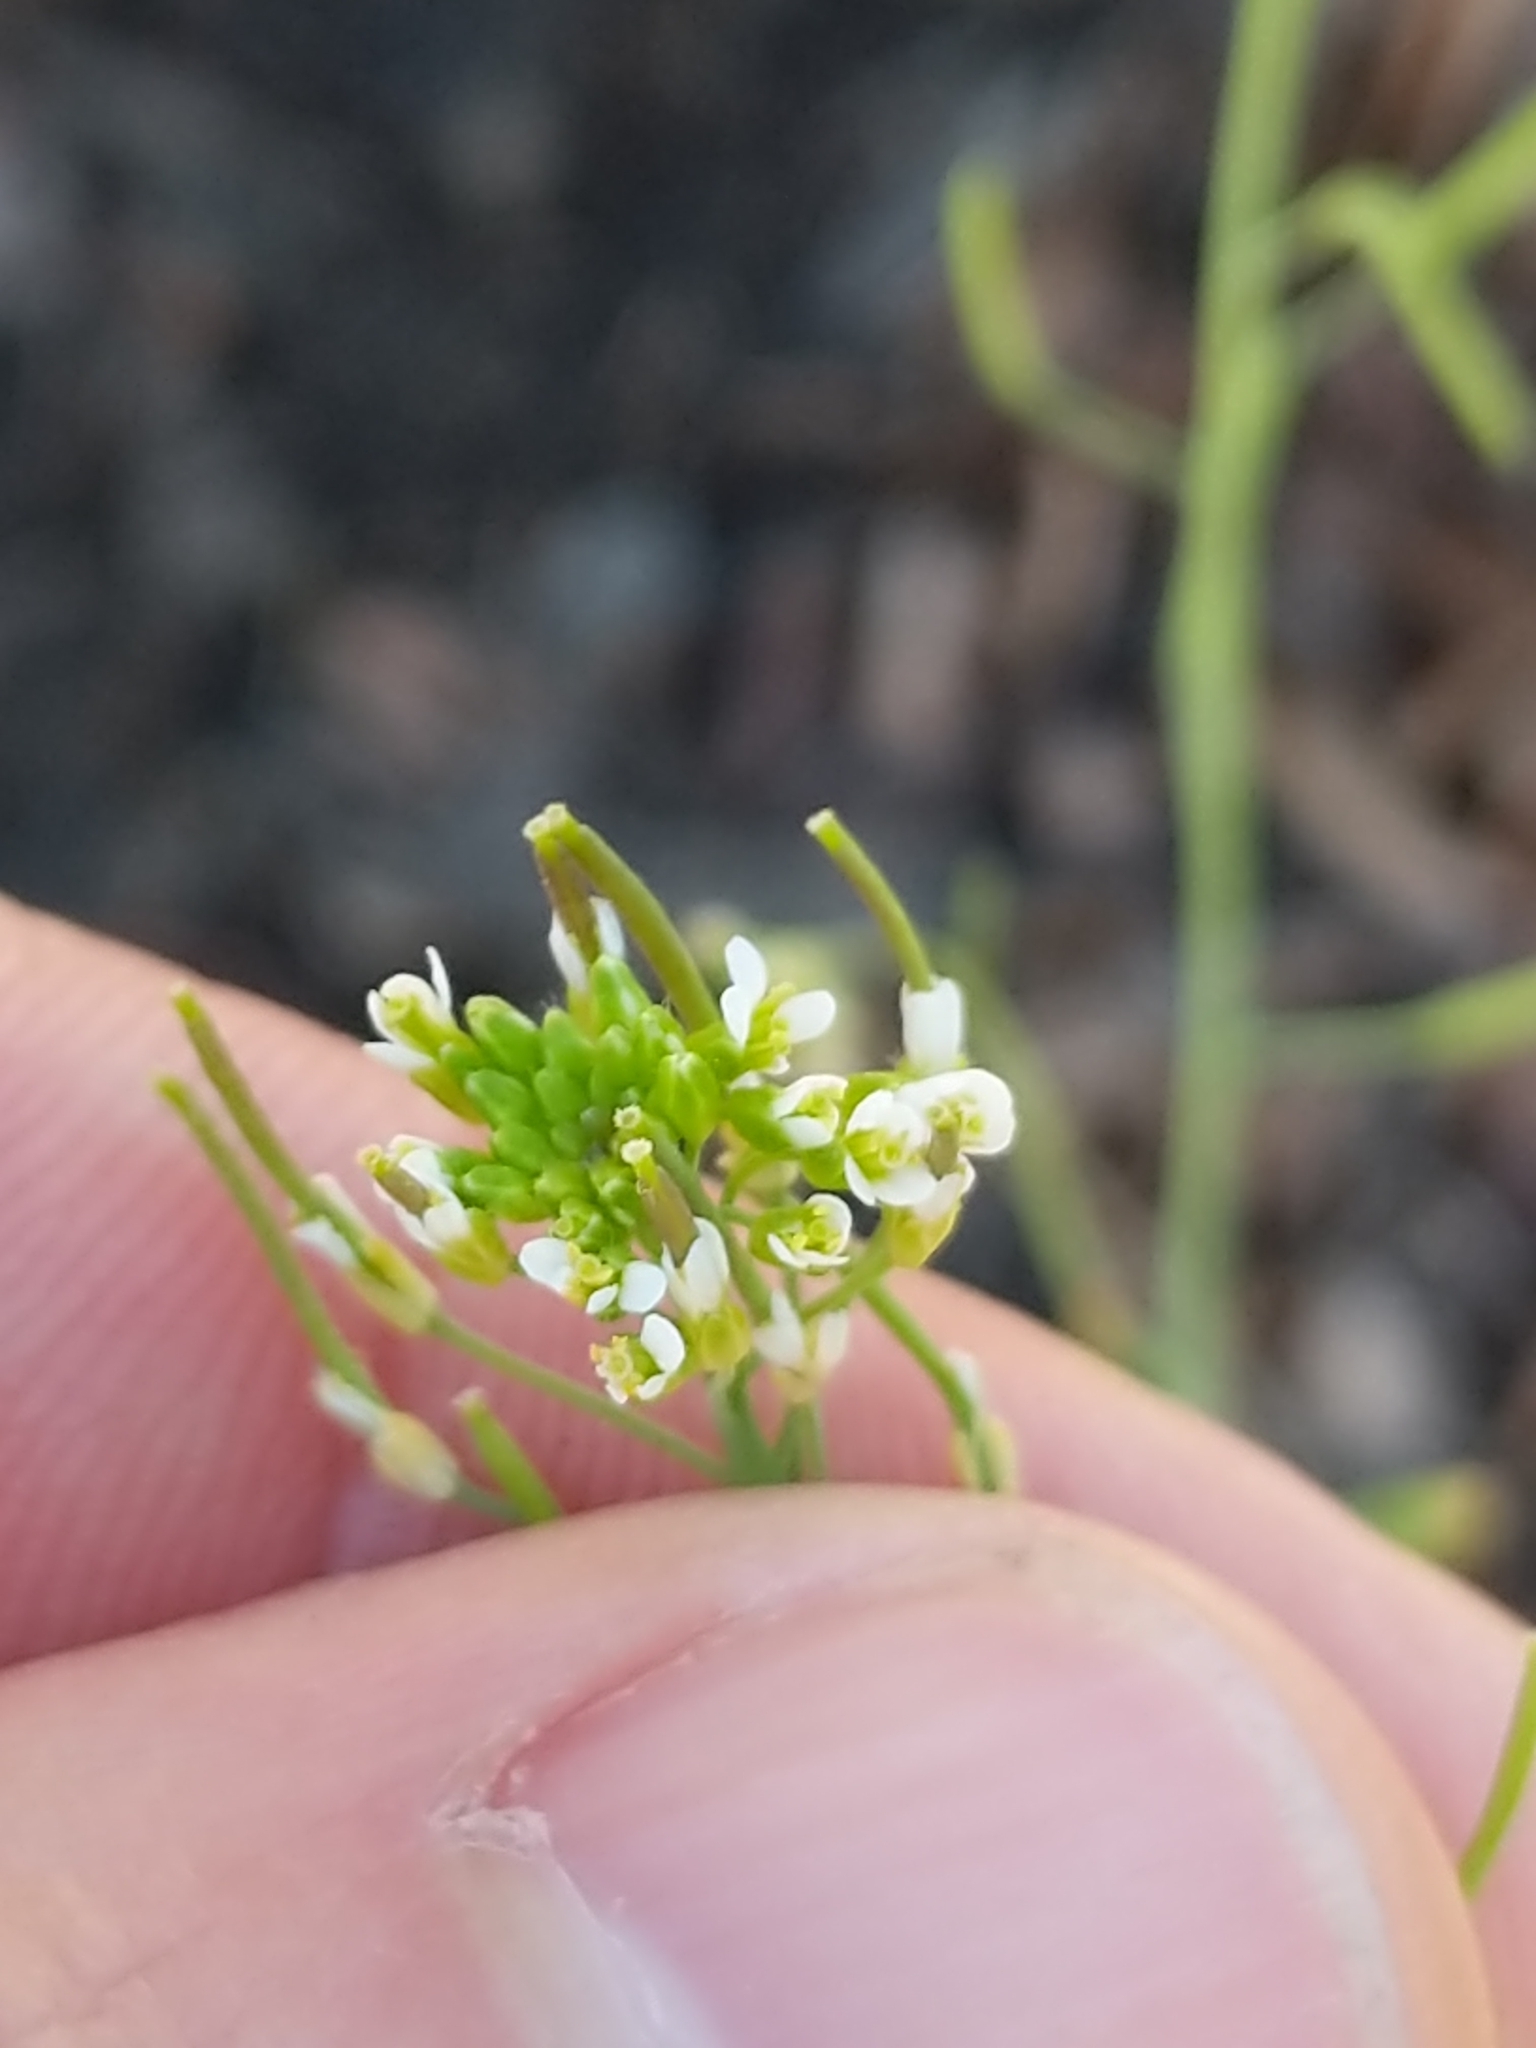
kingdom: Plantae
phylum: Tracheophyta
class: Magnoliopsida
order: Brassicales
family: Brassicaceae
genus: Arabidopsis
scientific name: Arabidopsis thaliana
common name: Thale cress
